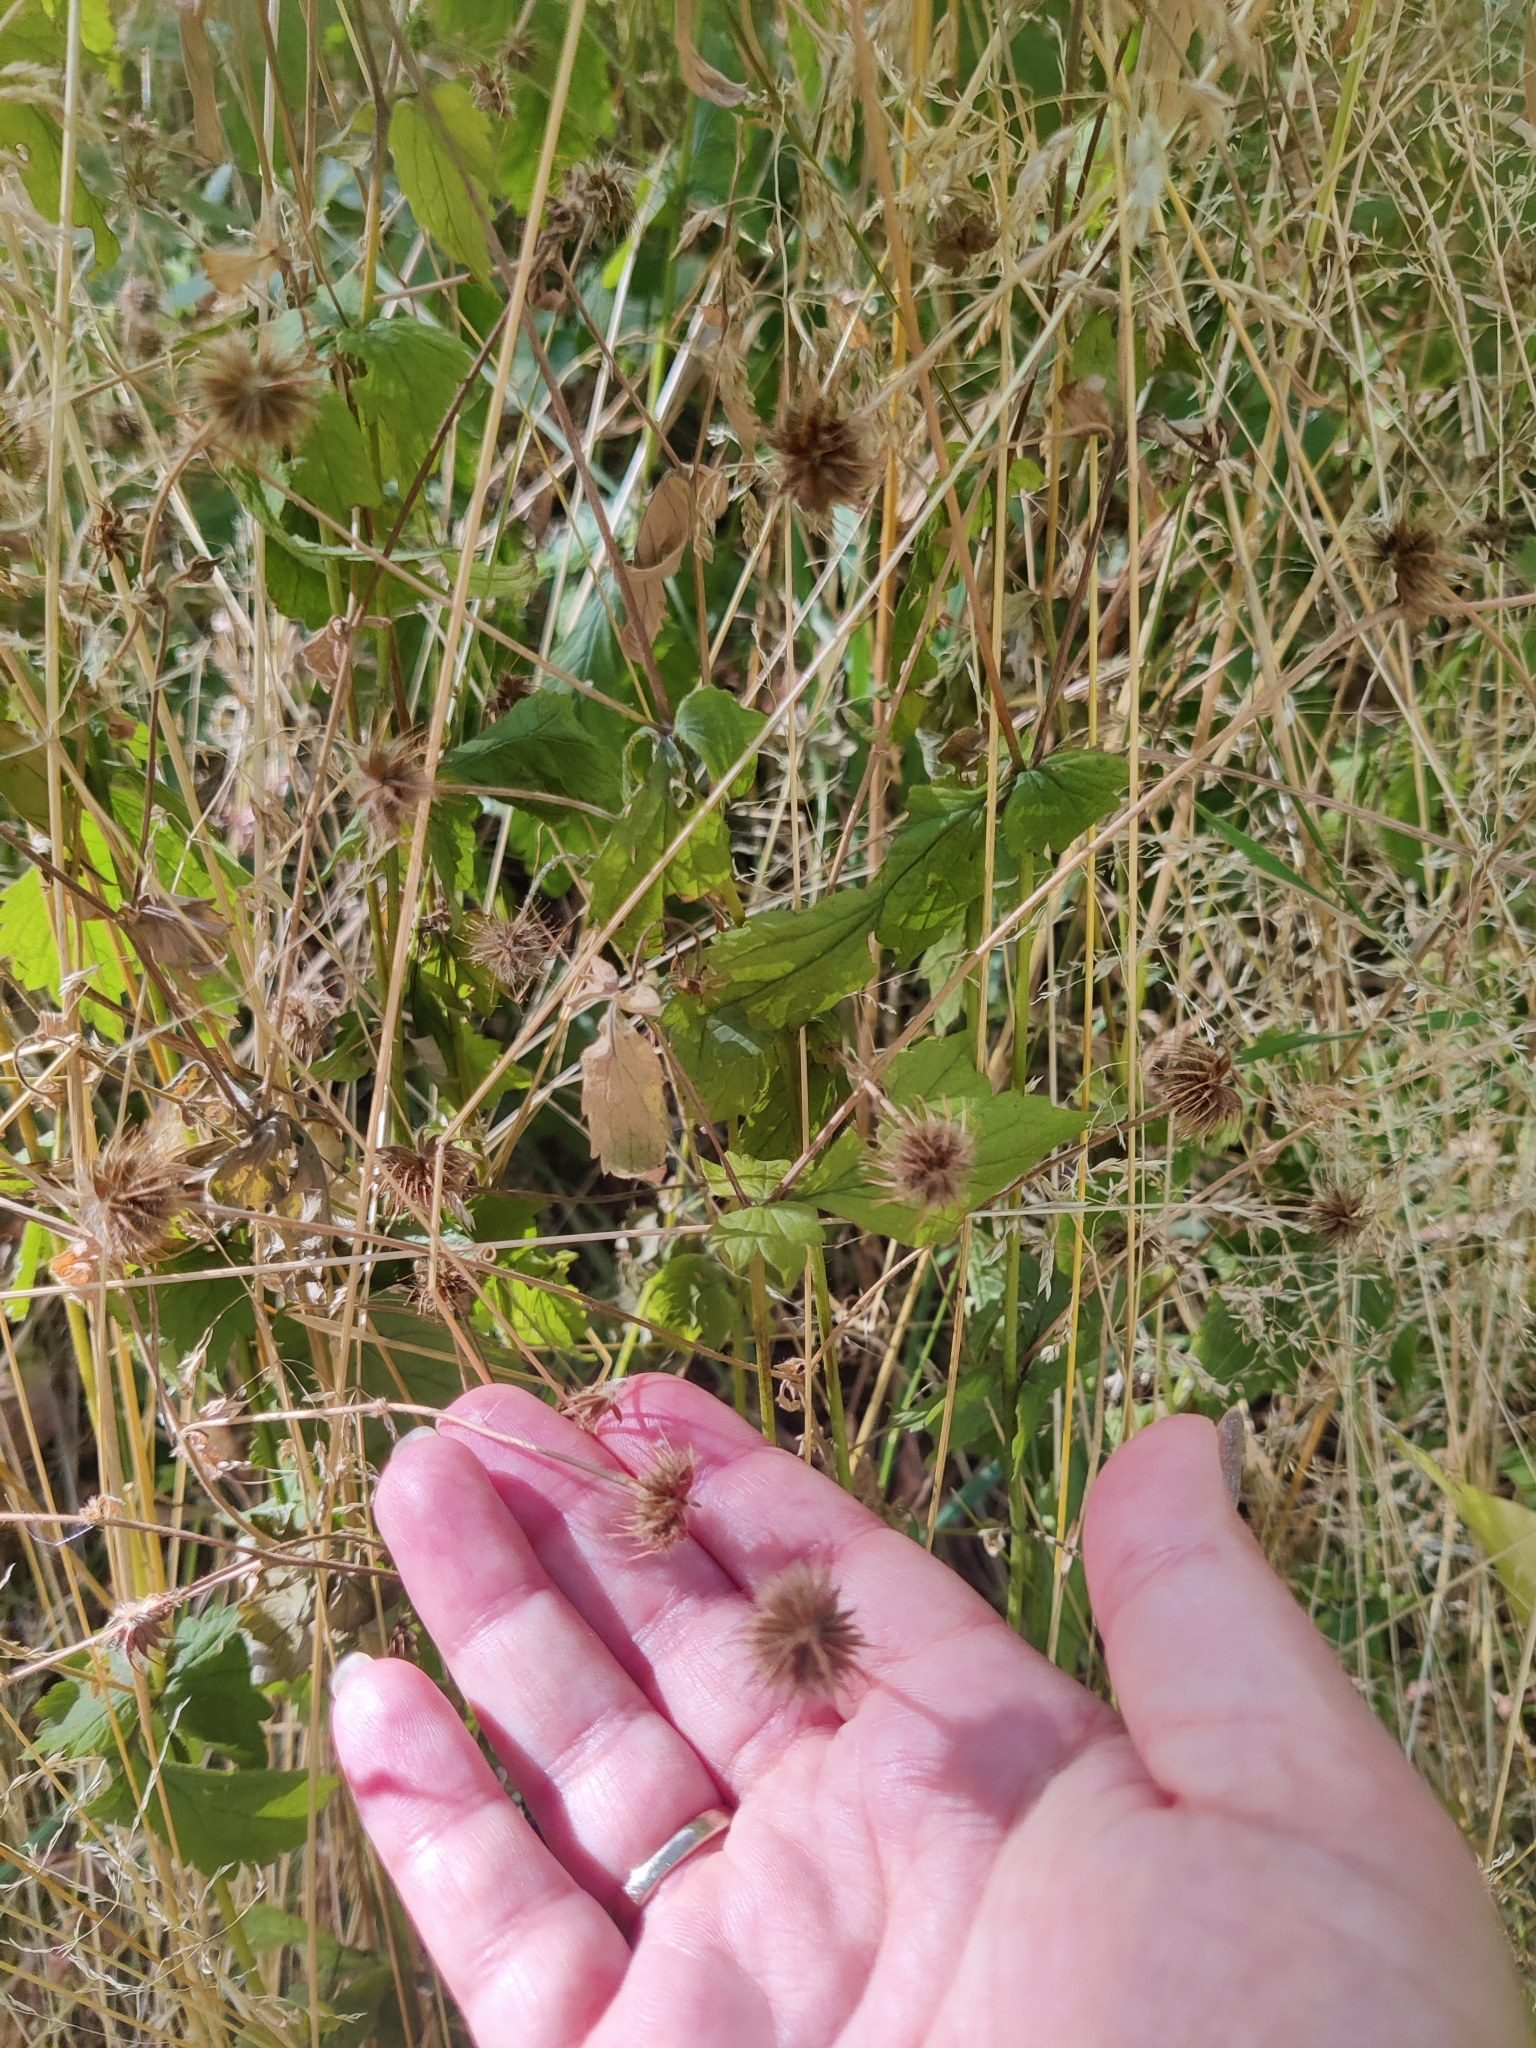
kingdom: Plantae
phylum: Tracheophyta
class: Magnoliopsida
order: Rosales
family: Rosaceae
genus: Geum
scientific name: Geum urbanum
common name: Wood avens
